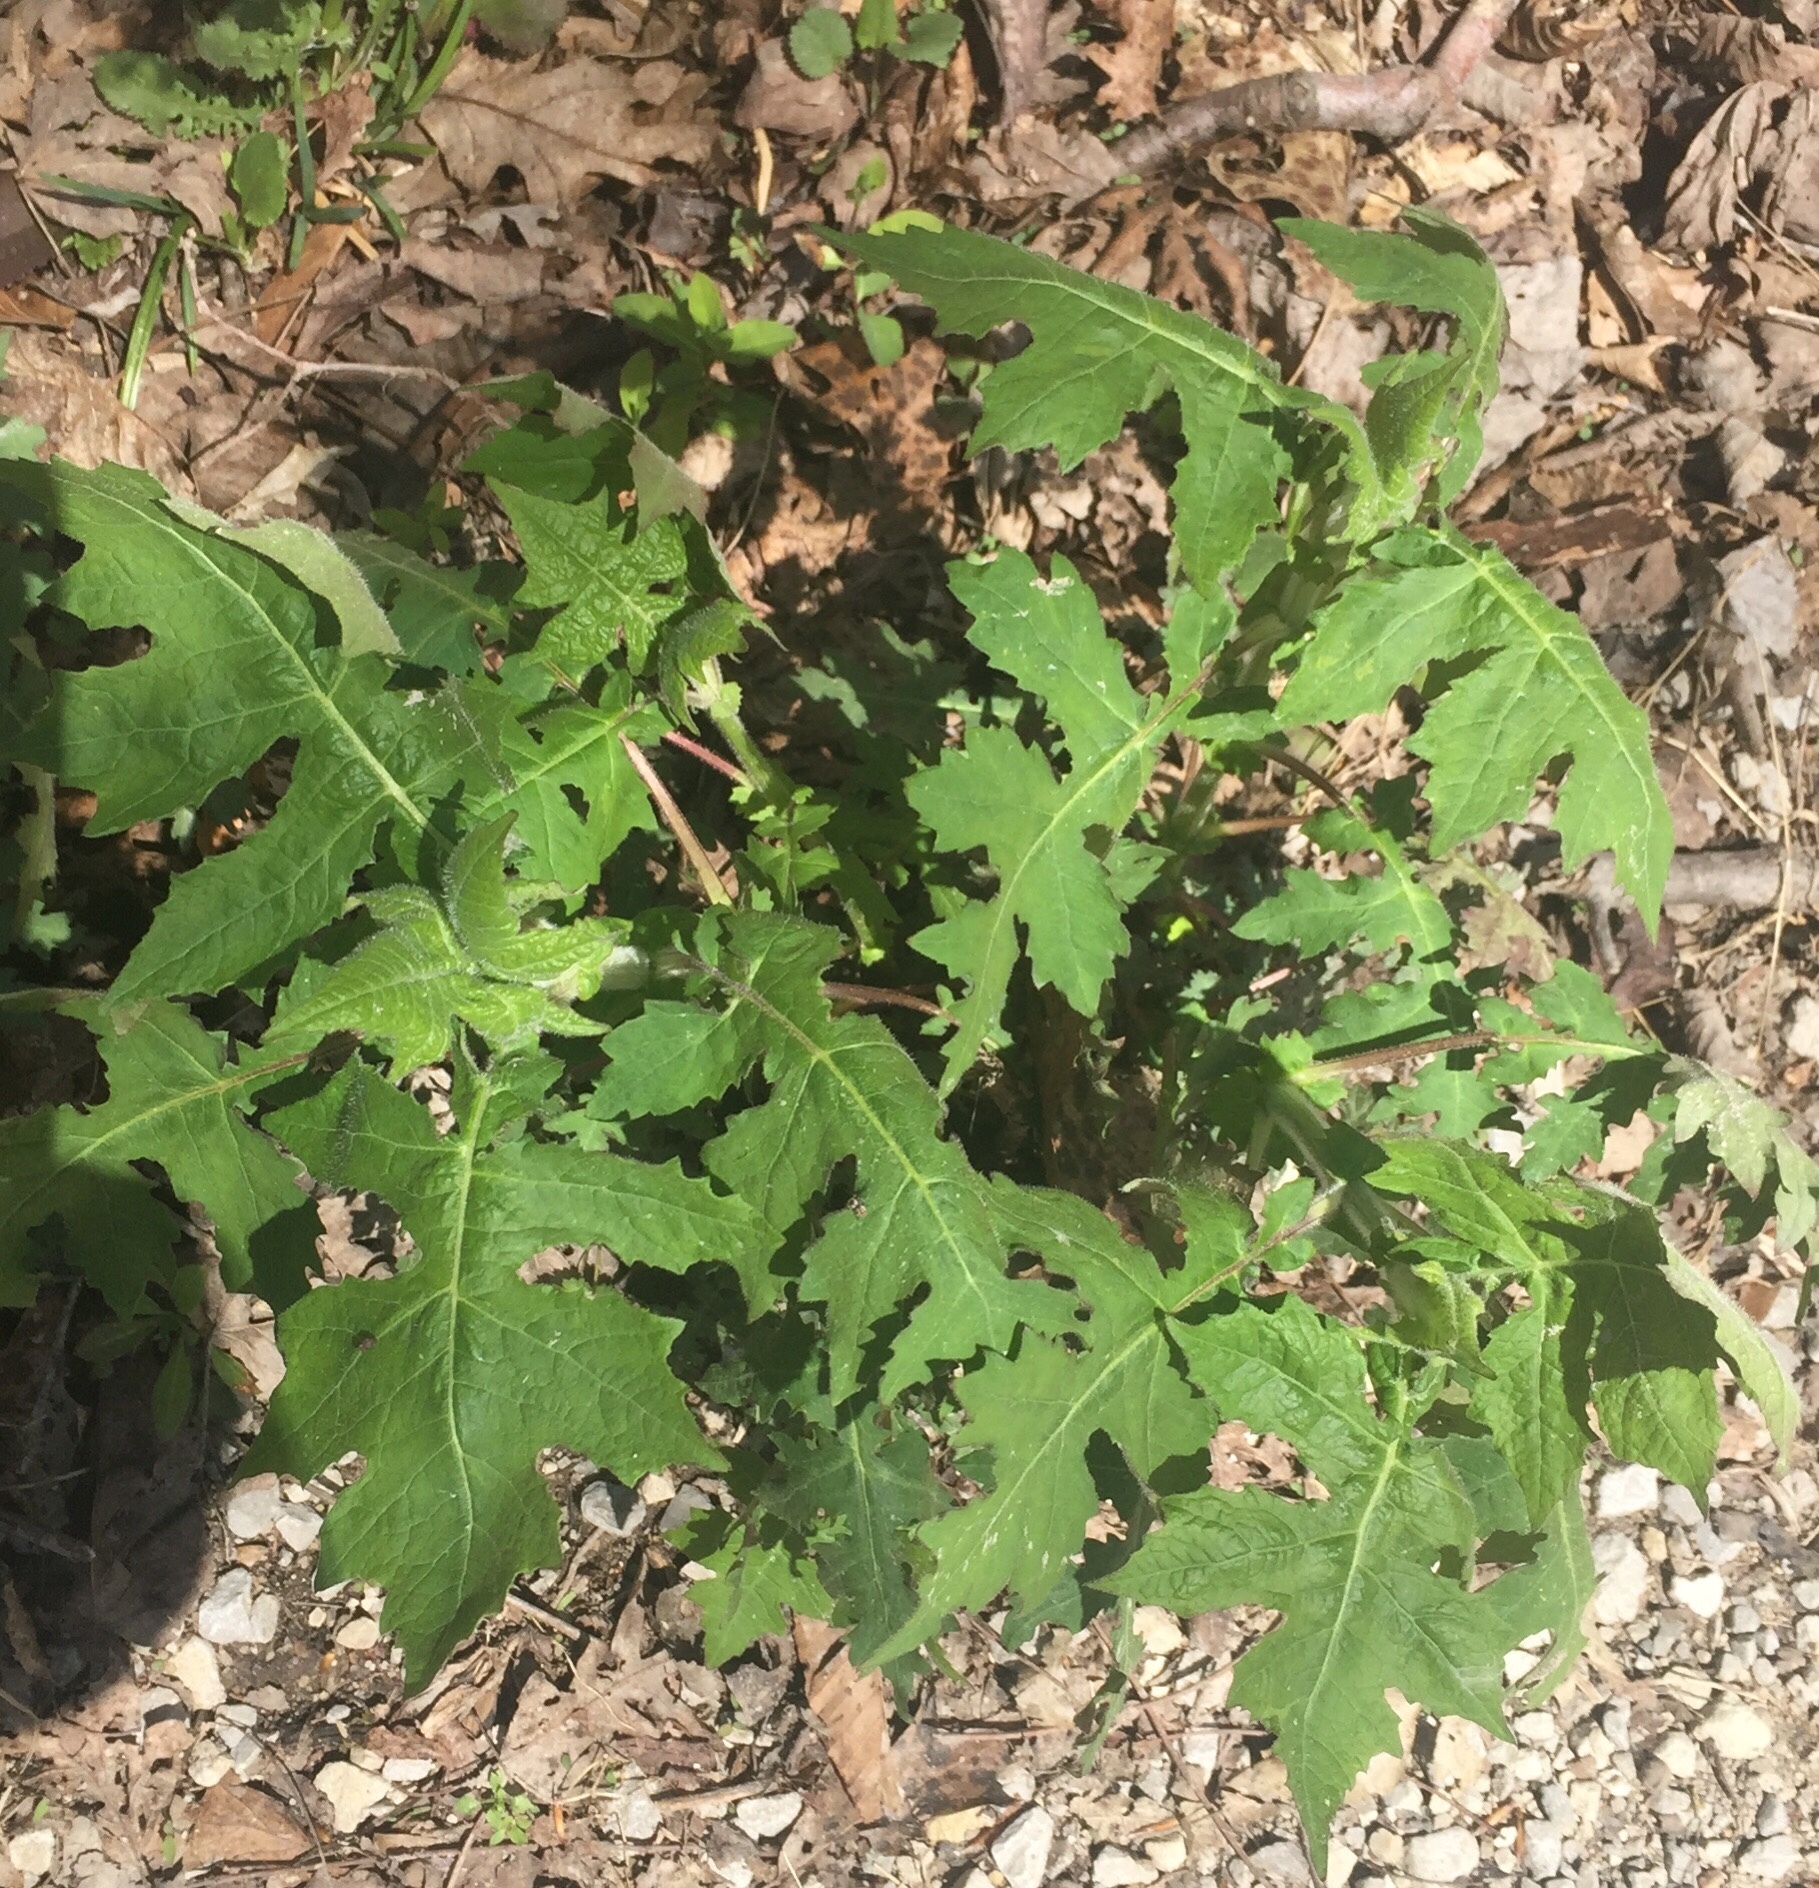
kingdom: Plantae
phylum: Tracheophyta
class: Magnoliopsida
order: Asterales
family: Asteraceae
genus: Polymnia
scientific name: Polymnia canadensis
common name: Pale-flowered leafcup
